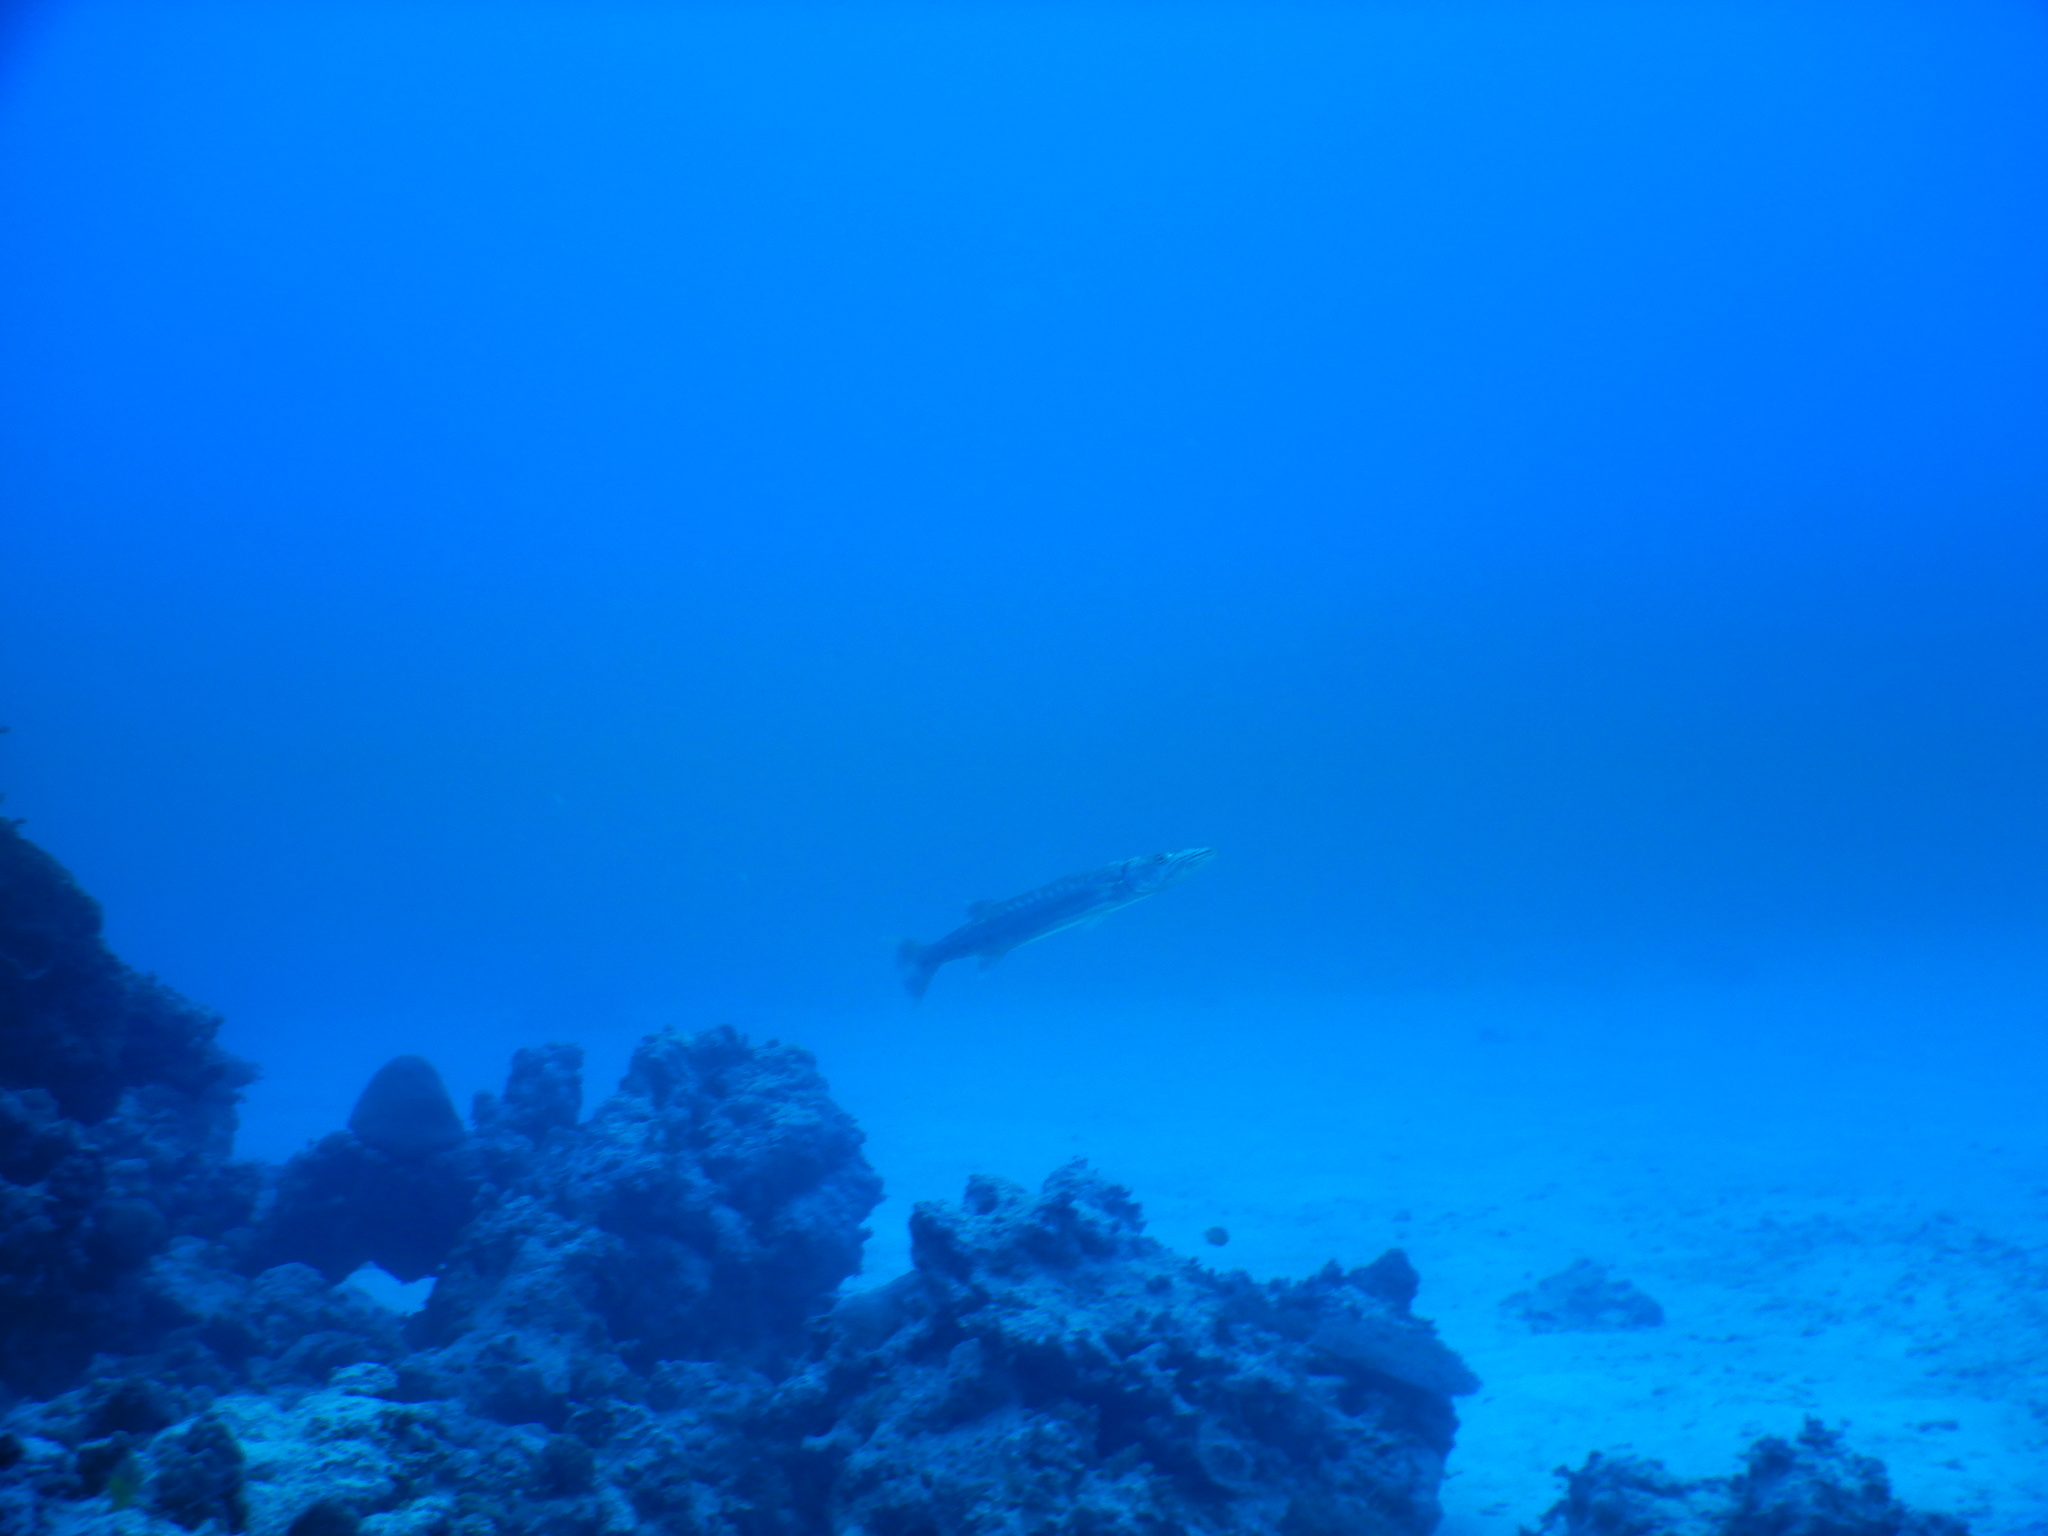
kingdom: Animalia
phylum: Chordata
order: Perciformes
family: Sphyraenidae
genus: Sphyraena
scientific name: Sphyraena barracuda
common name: Great barracuda
